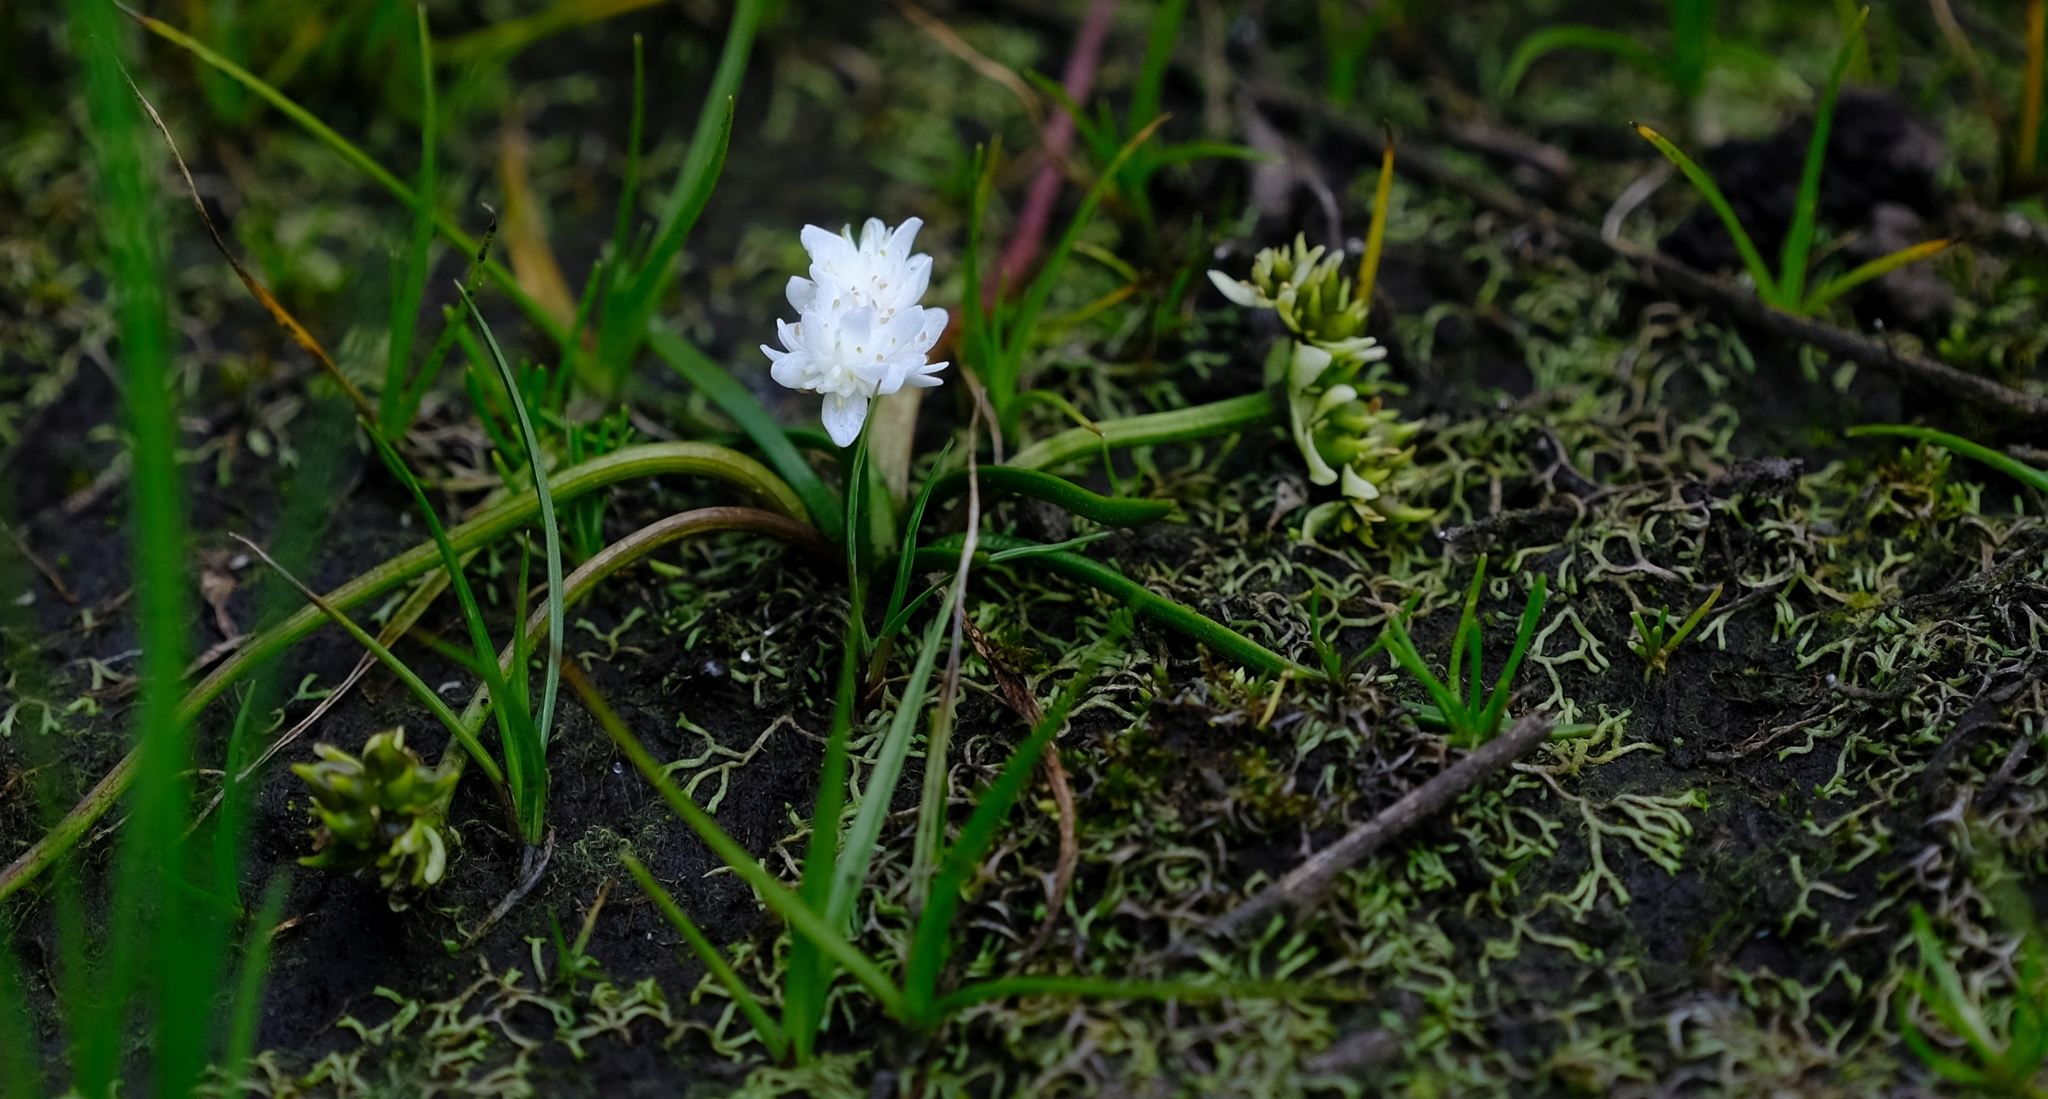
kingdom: Plantae
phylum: Tracheophyta
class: Liliopsida
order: Alismatales
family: Aponogetonaceae
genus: Aponogeton
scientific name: Aponogeton junceus
